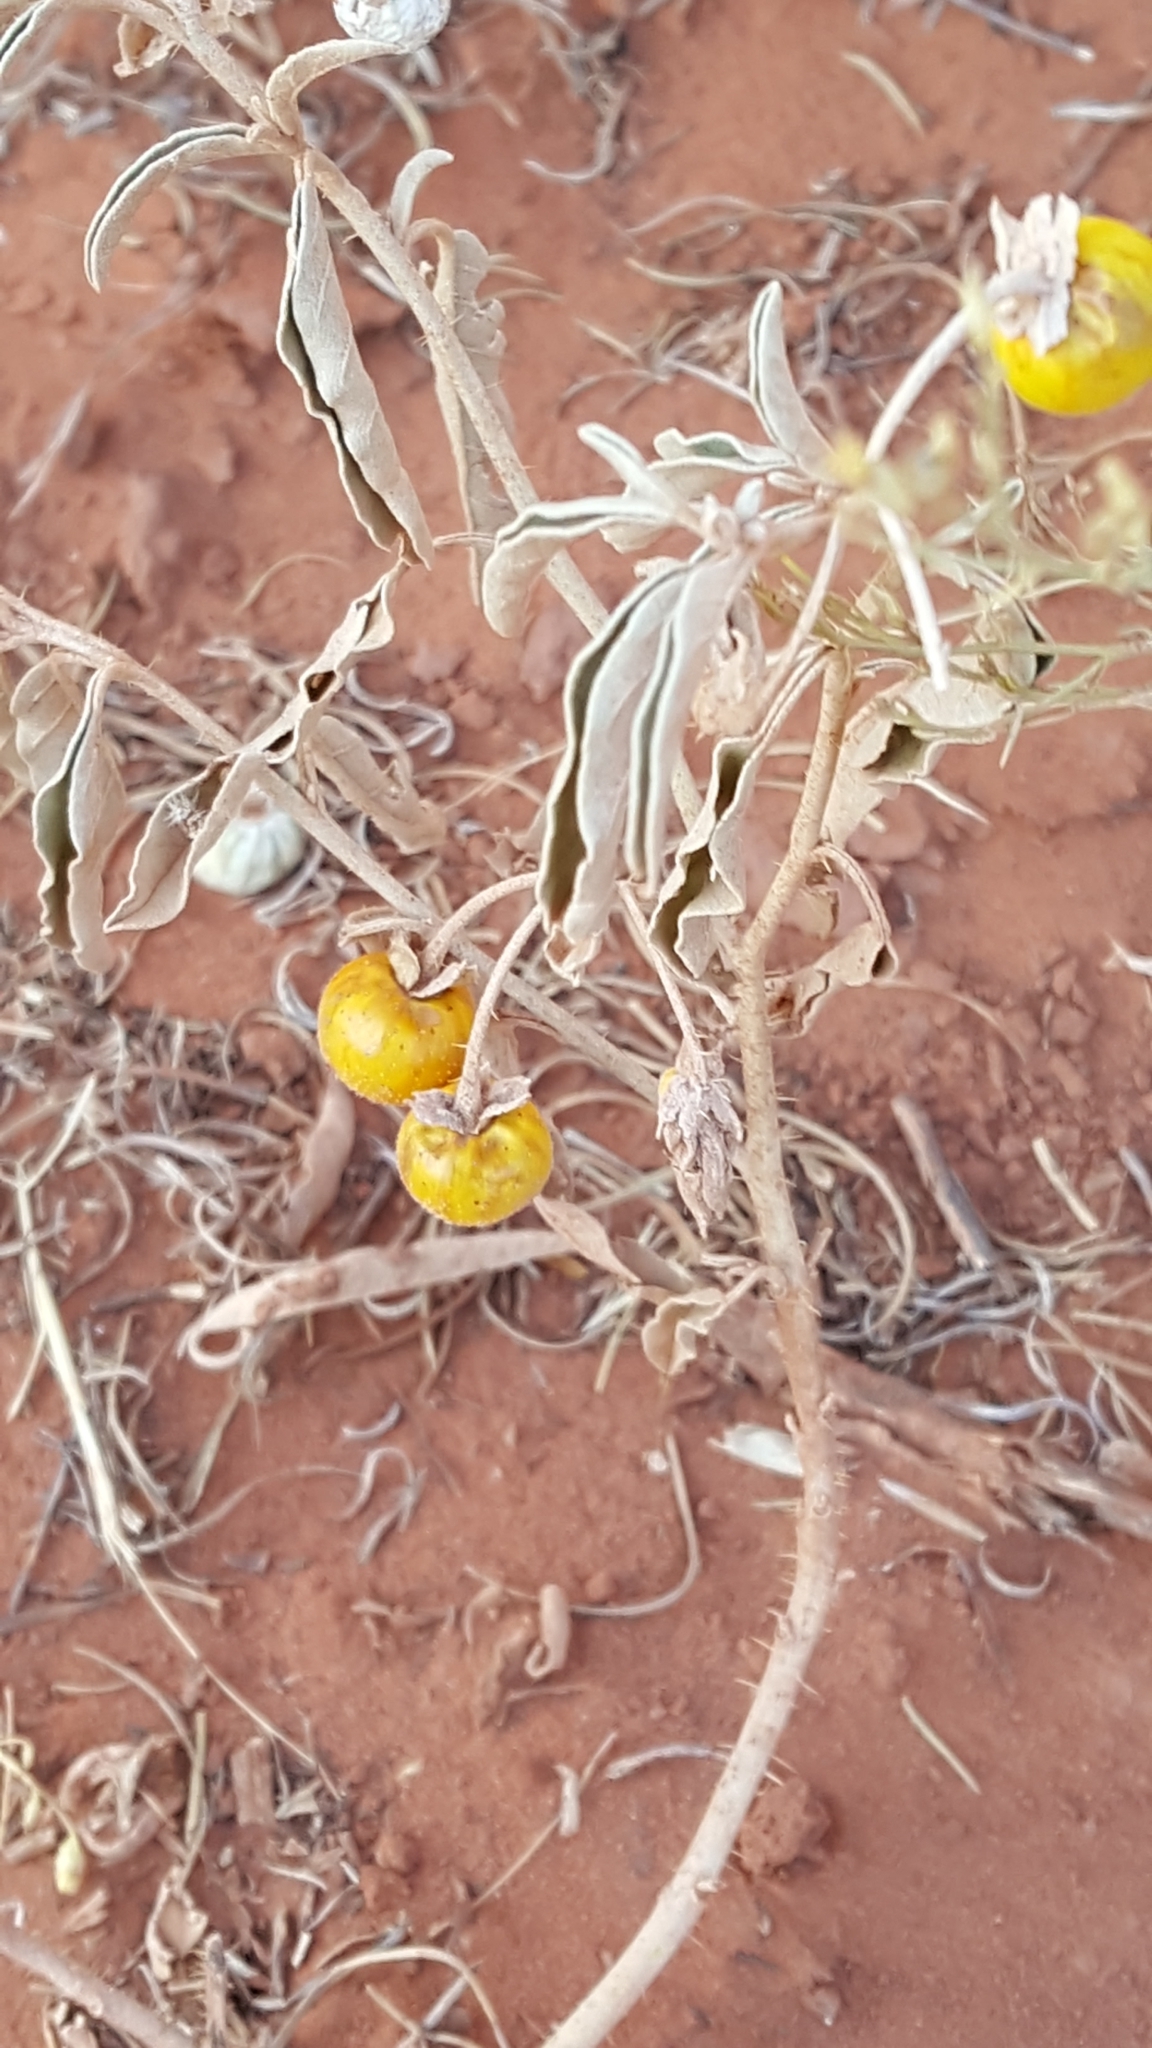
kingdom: Plantae
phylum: Tracheophyta
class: Magnoliopsida
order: Solanales
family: Solanaceae
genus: Solanum
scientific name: Solanum elaeagnifolium
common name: Silverleaf nightshade
